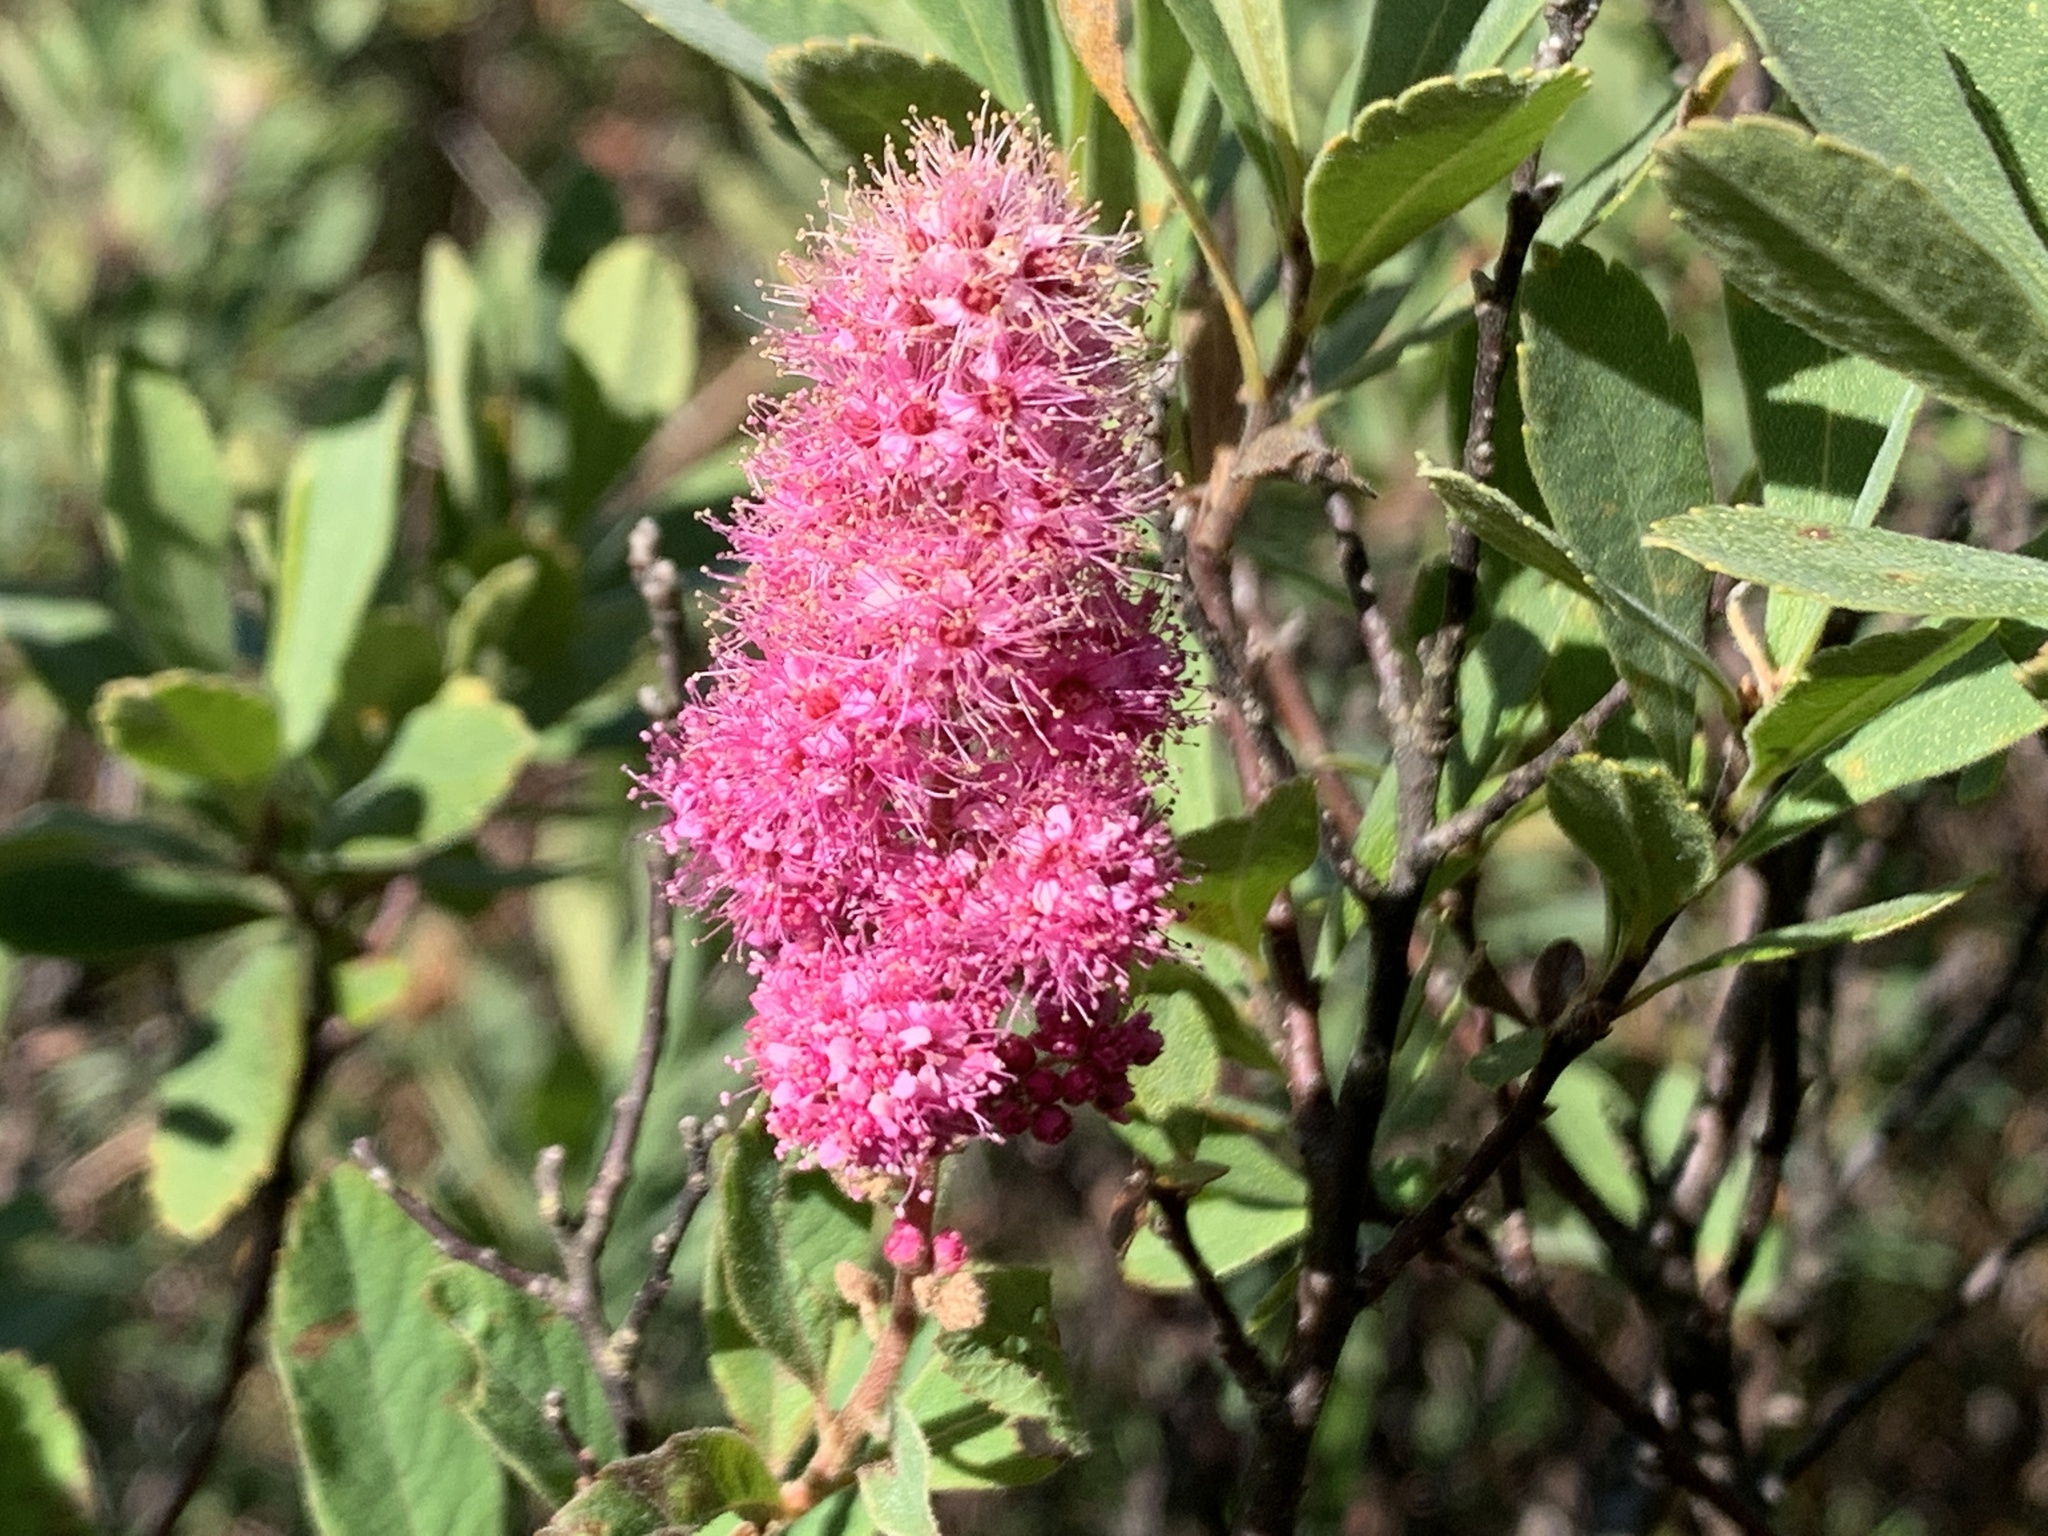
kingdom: Plantae
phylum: Tracheophyta
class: Magnoliopsida
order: Rosales
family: Rosaceae
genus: Spiraea
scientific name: Spiraea douglasii
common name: Steeplebush
